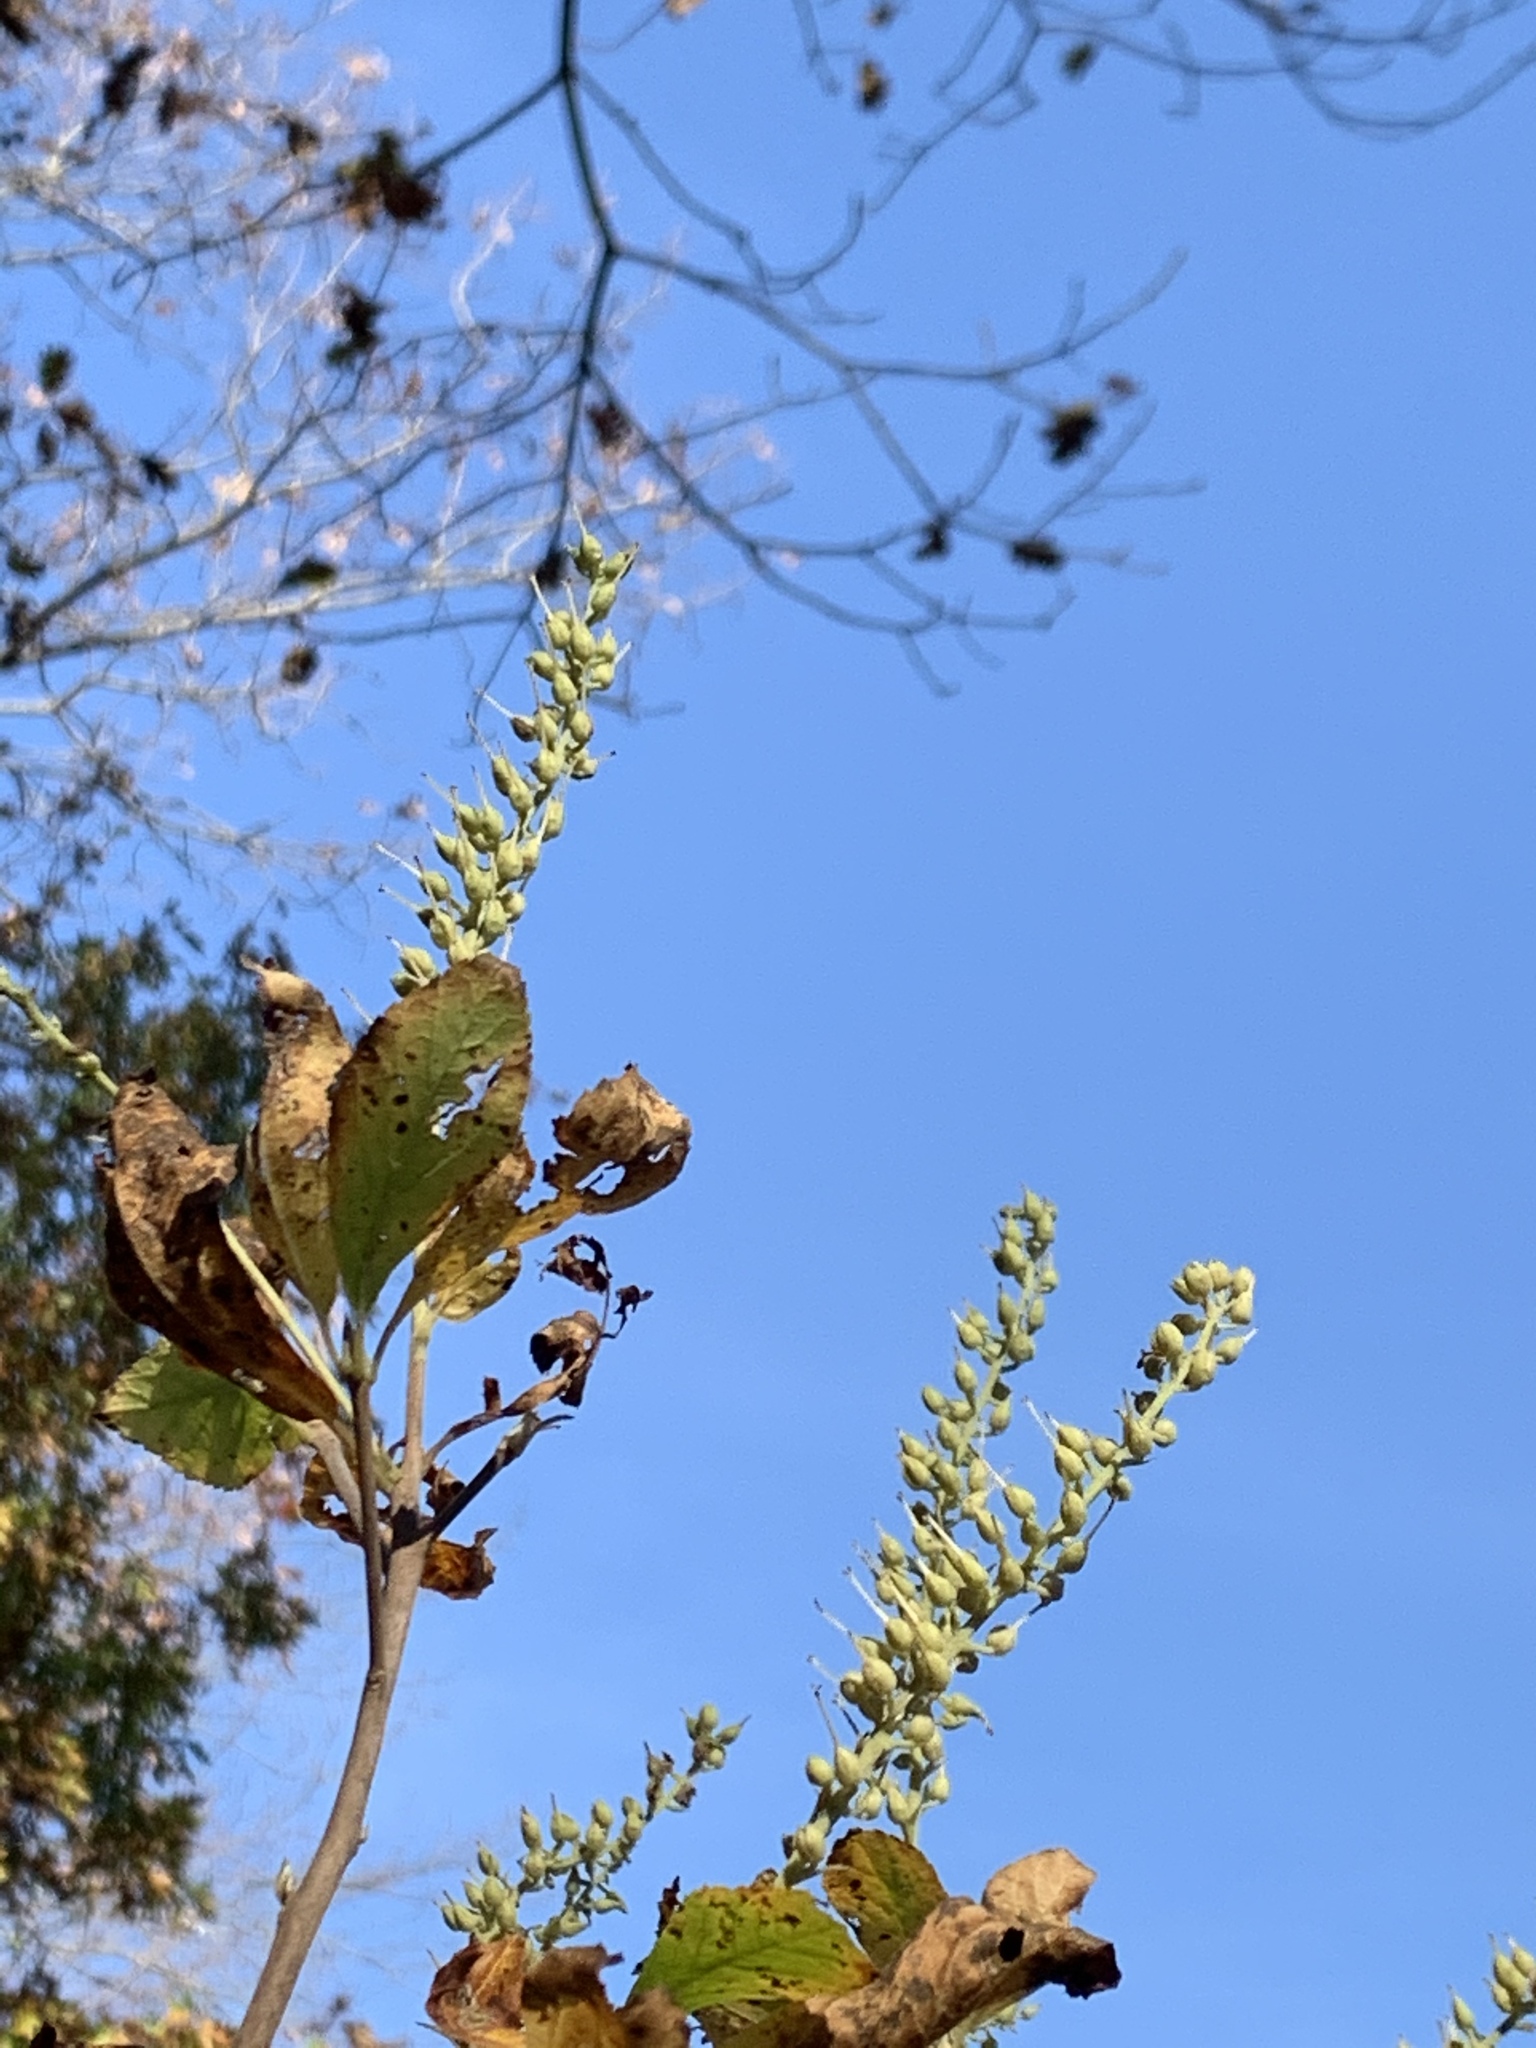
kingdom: Plantae
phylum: Tracheophyta
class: Magnoliopsida
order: Ericales
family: Clethraceae
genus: Clethra
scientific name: Clethra alnifolia
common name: Sweet pepperbush
